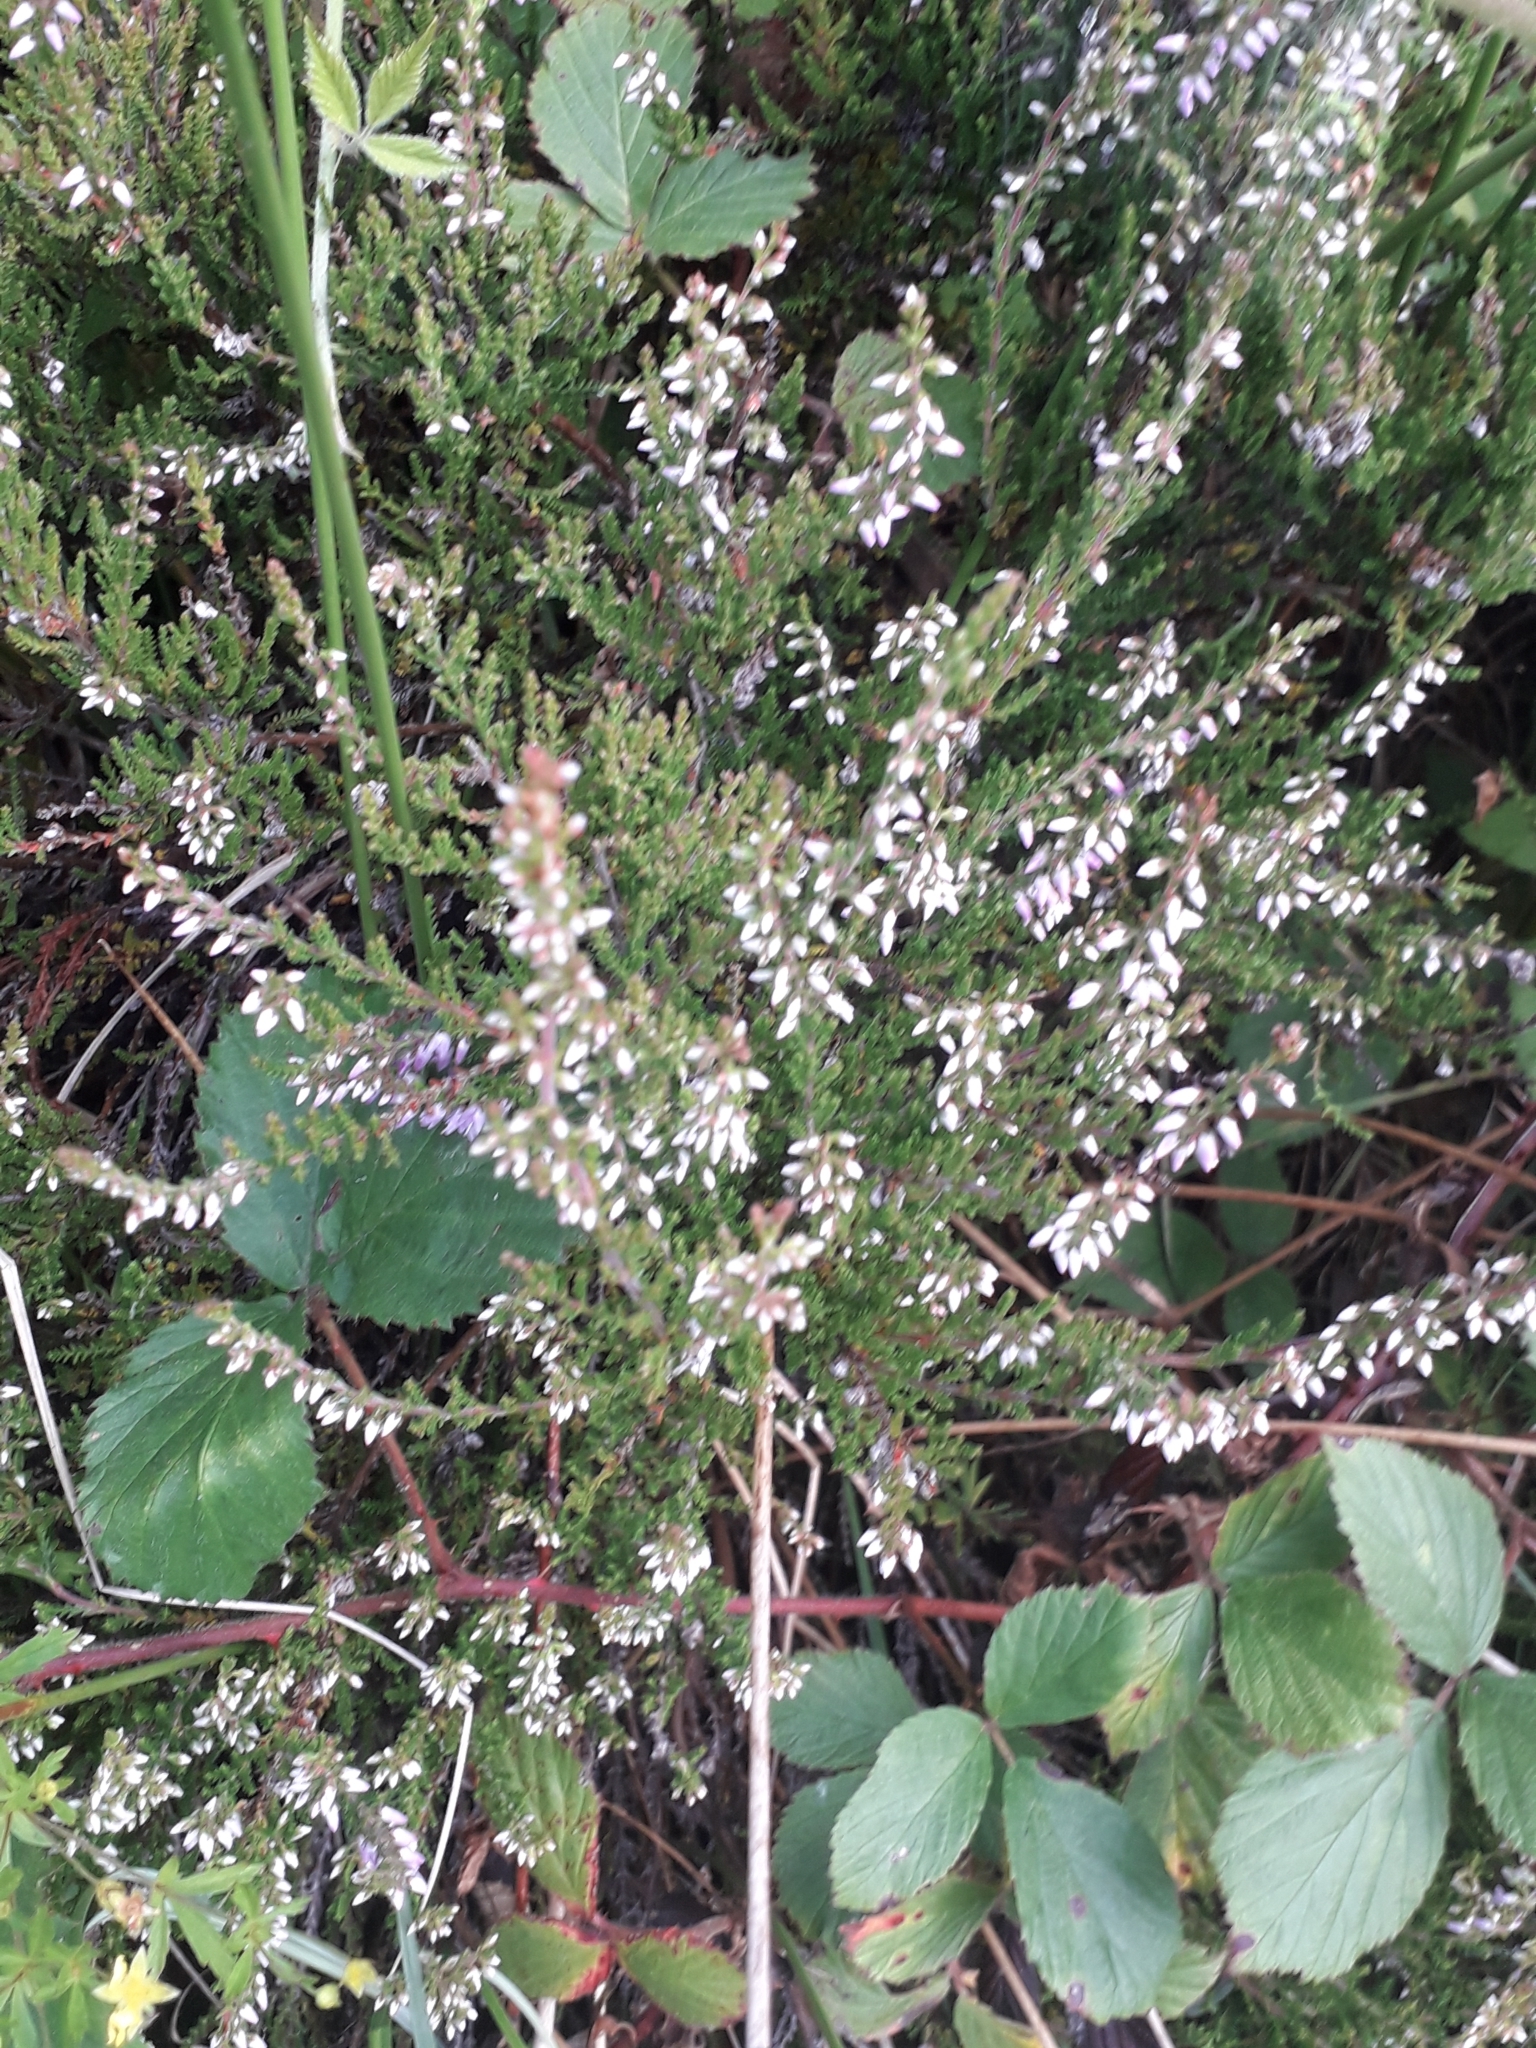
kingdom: Plantae
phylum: Tracheophyta
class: Magnoliopsida
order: Ericales
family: Ericaceae
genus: Calluna
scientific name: Calluna vulgaris
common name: Heather
